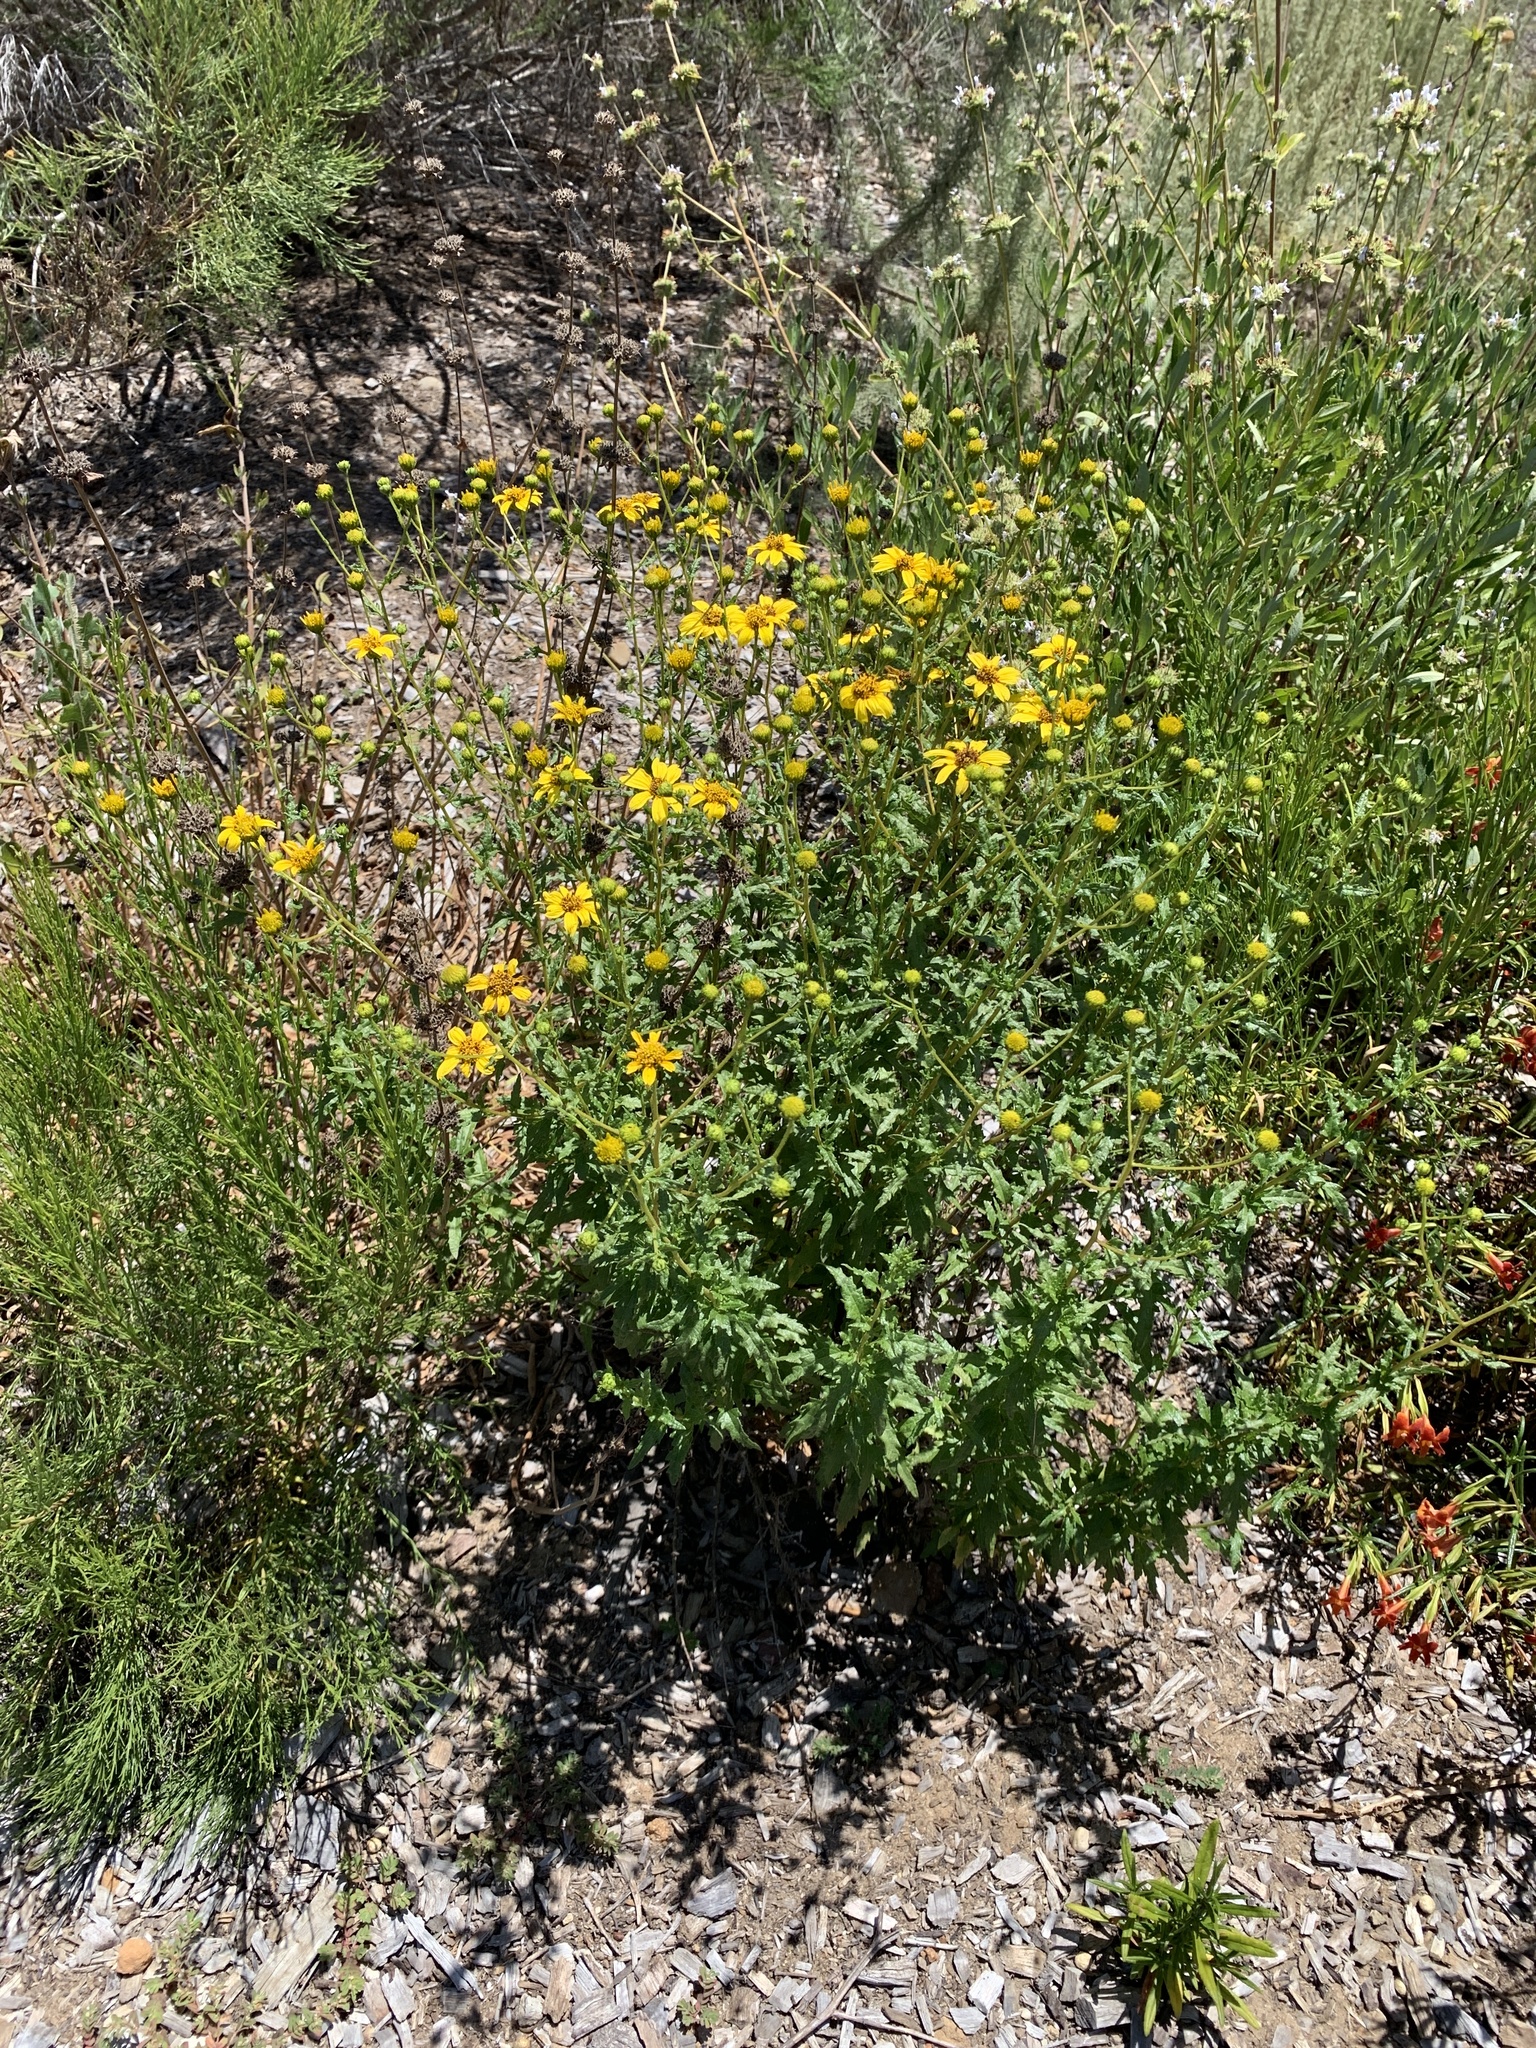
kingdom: Plantae
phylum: Tracheophyta
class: Magnoliopsida
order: Asterales
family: Asteraceae
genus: Bahiopsis
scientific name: Bahiopsis laciniata
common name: San diego county viguiera
